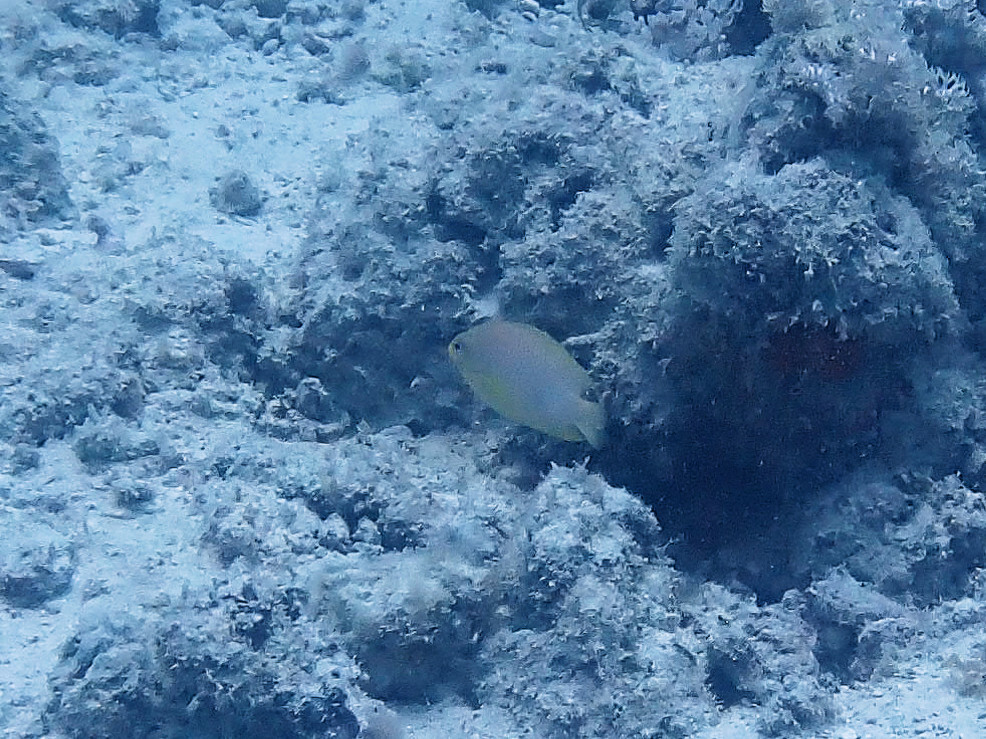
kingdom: Animalia
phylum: Chordata
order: Perciformes
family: Pomacentridae
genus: Pomacentrus
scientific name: Pomacentrus amboinensis
